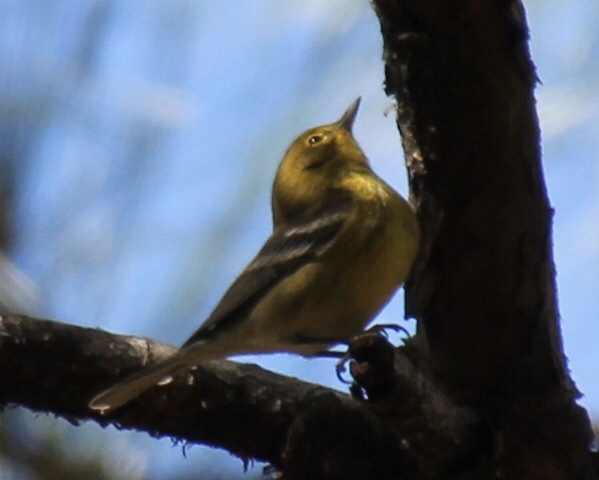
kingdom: Animalia
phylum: Chordata
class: Aves
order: Passeriformes
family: Parulidae
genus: Setophaga
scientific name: Setophaga pinus
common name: Pine warbler
